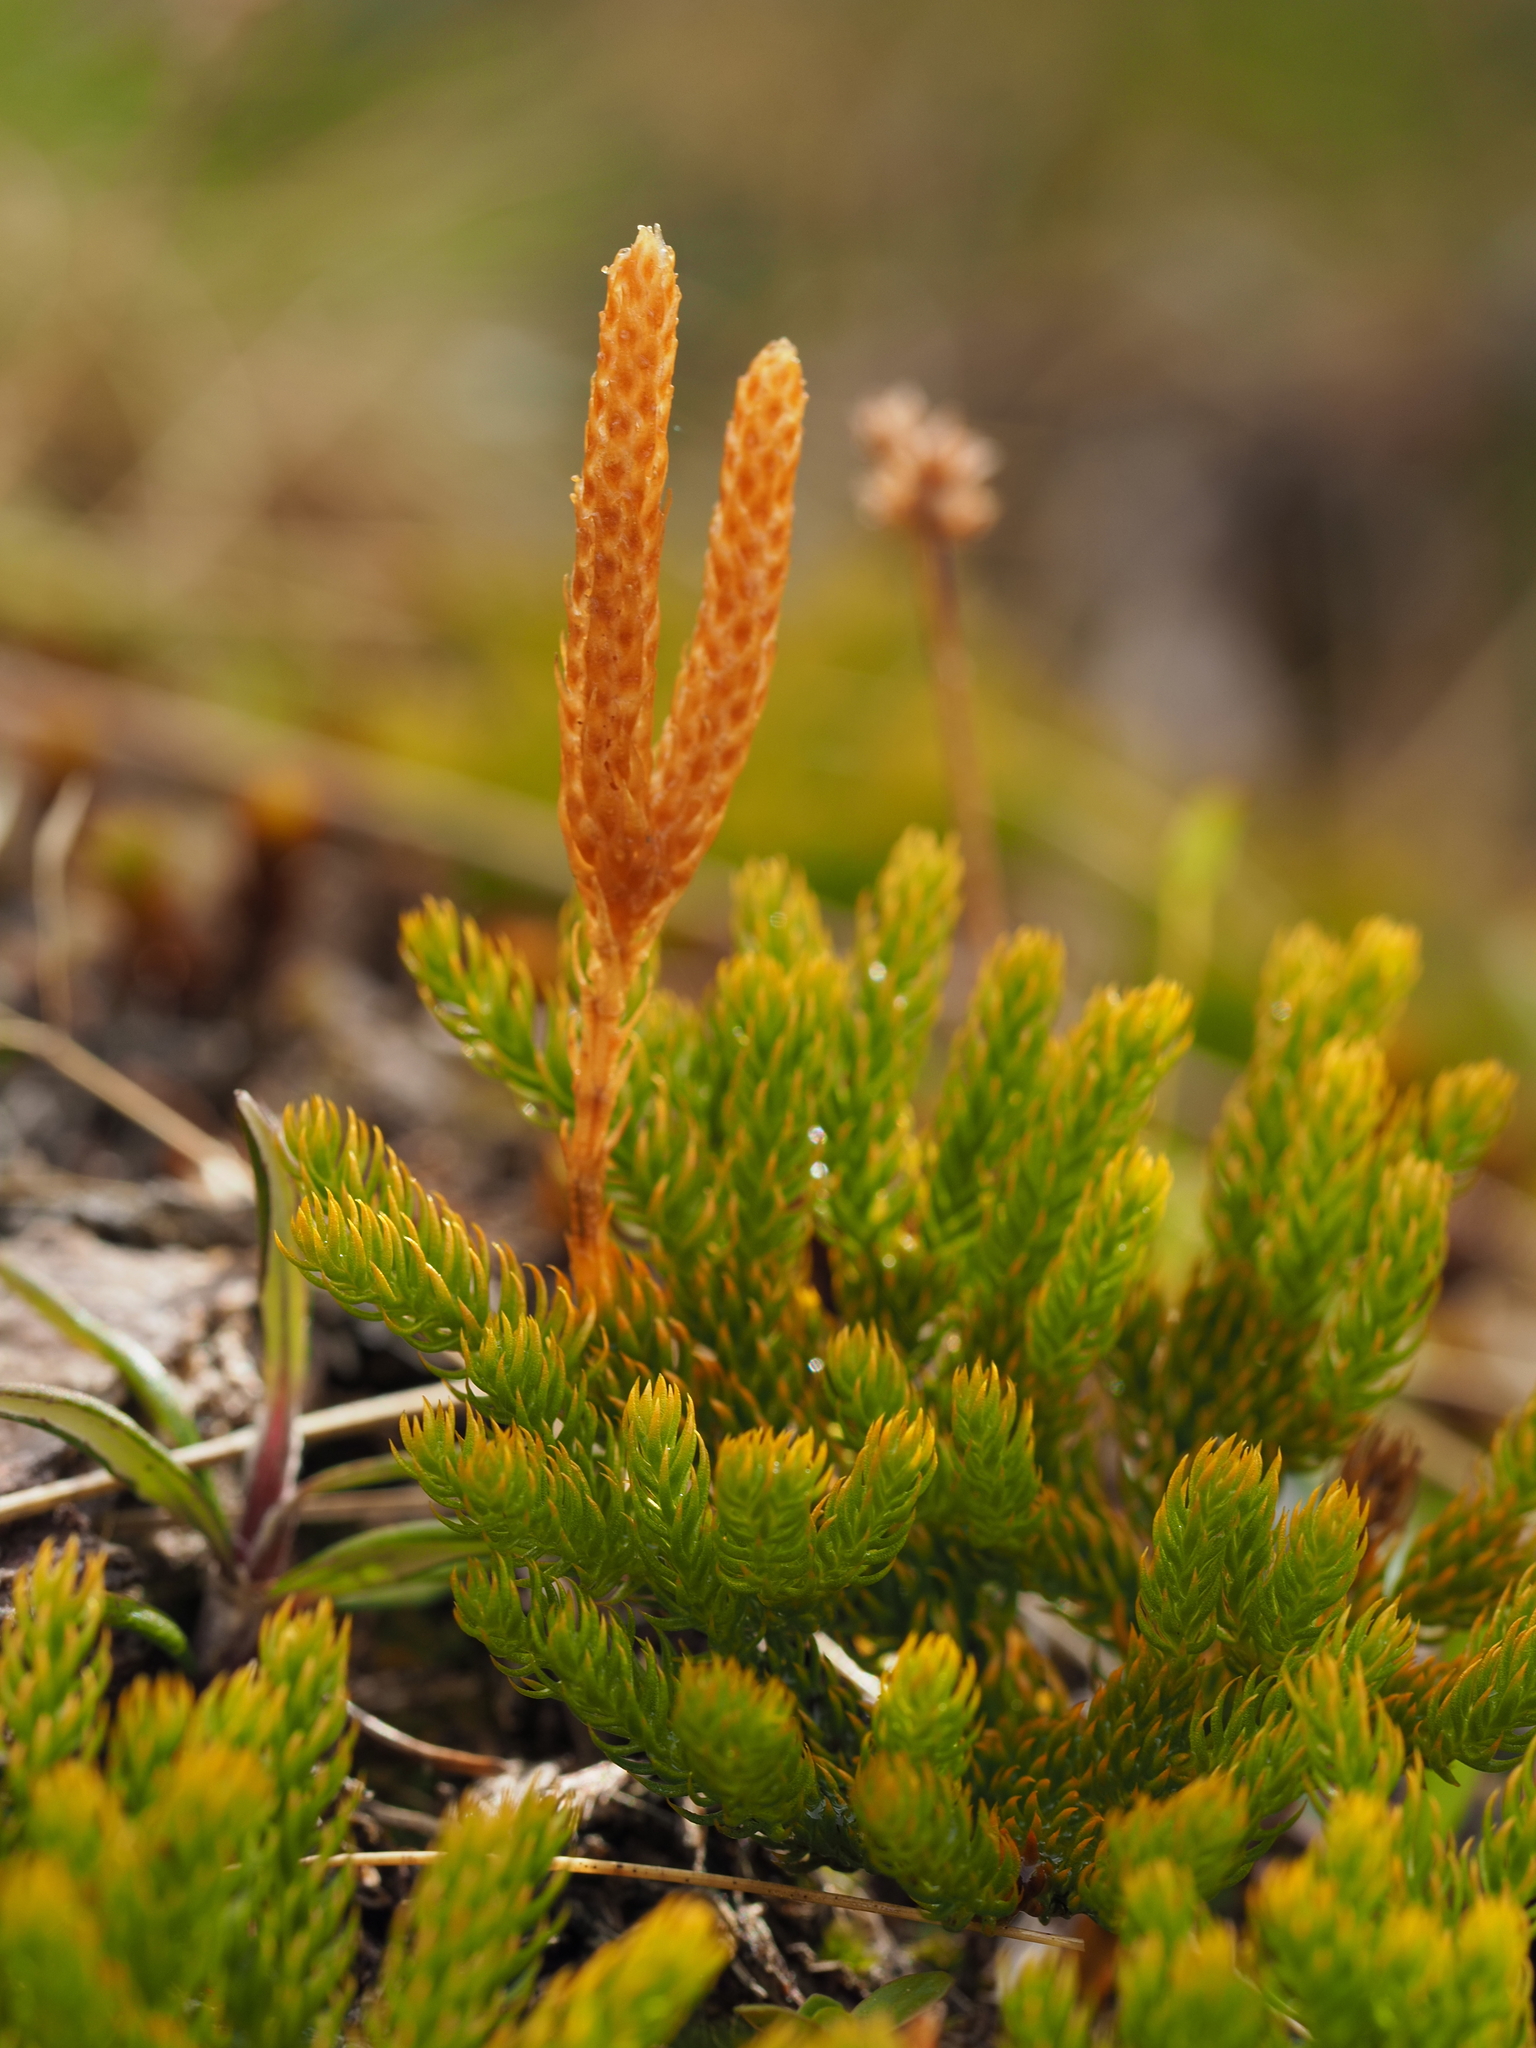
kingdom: Plantae
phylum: Tracheophyta
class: Lycopodiopsida
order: Lycopodiales
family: Lycopodiaceae
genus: Austrolycopodium
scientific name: Austrolycopodium fastigiatum
